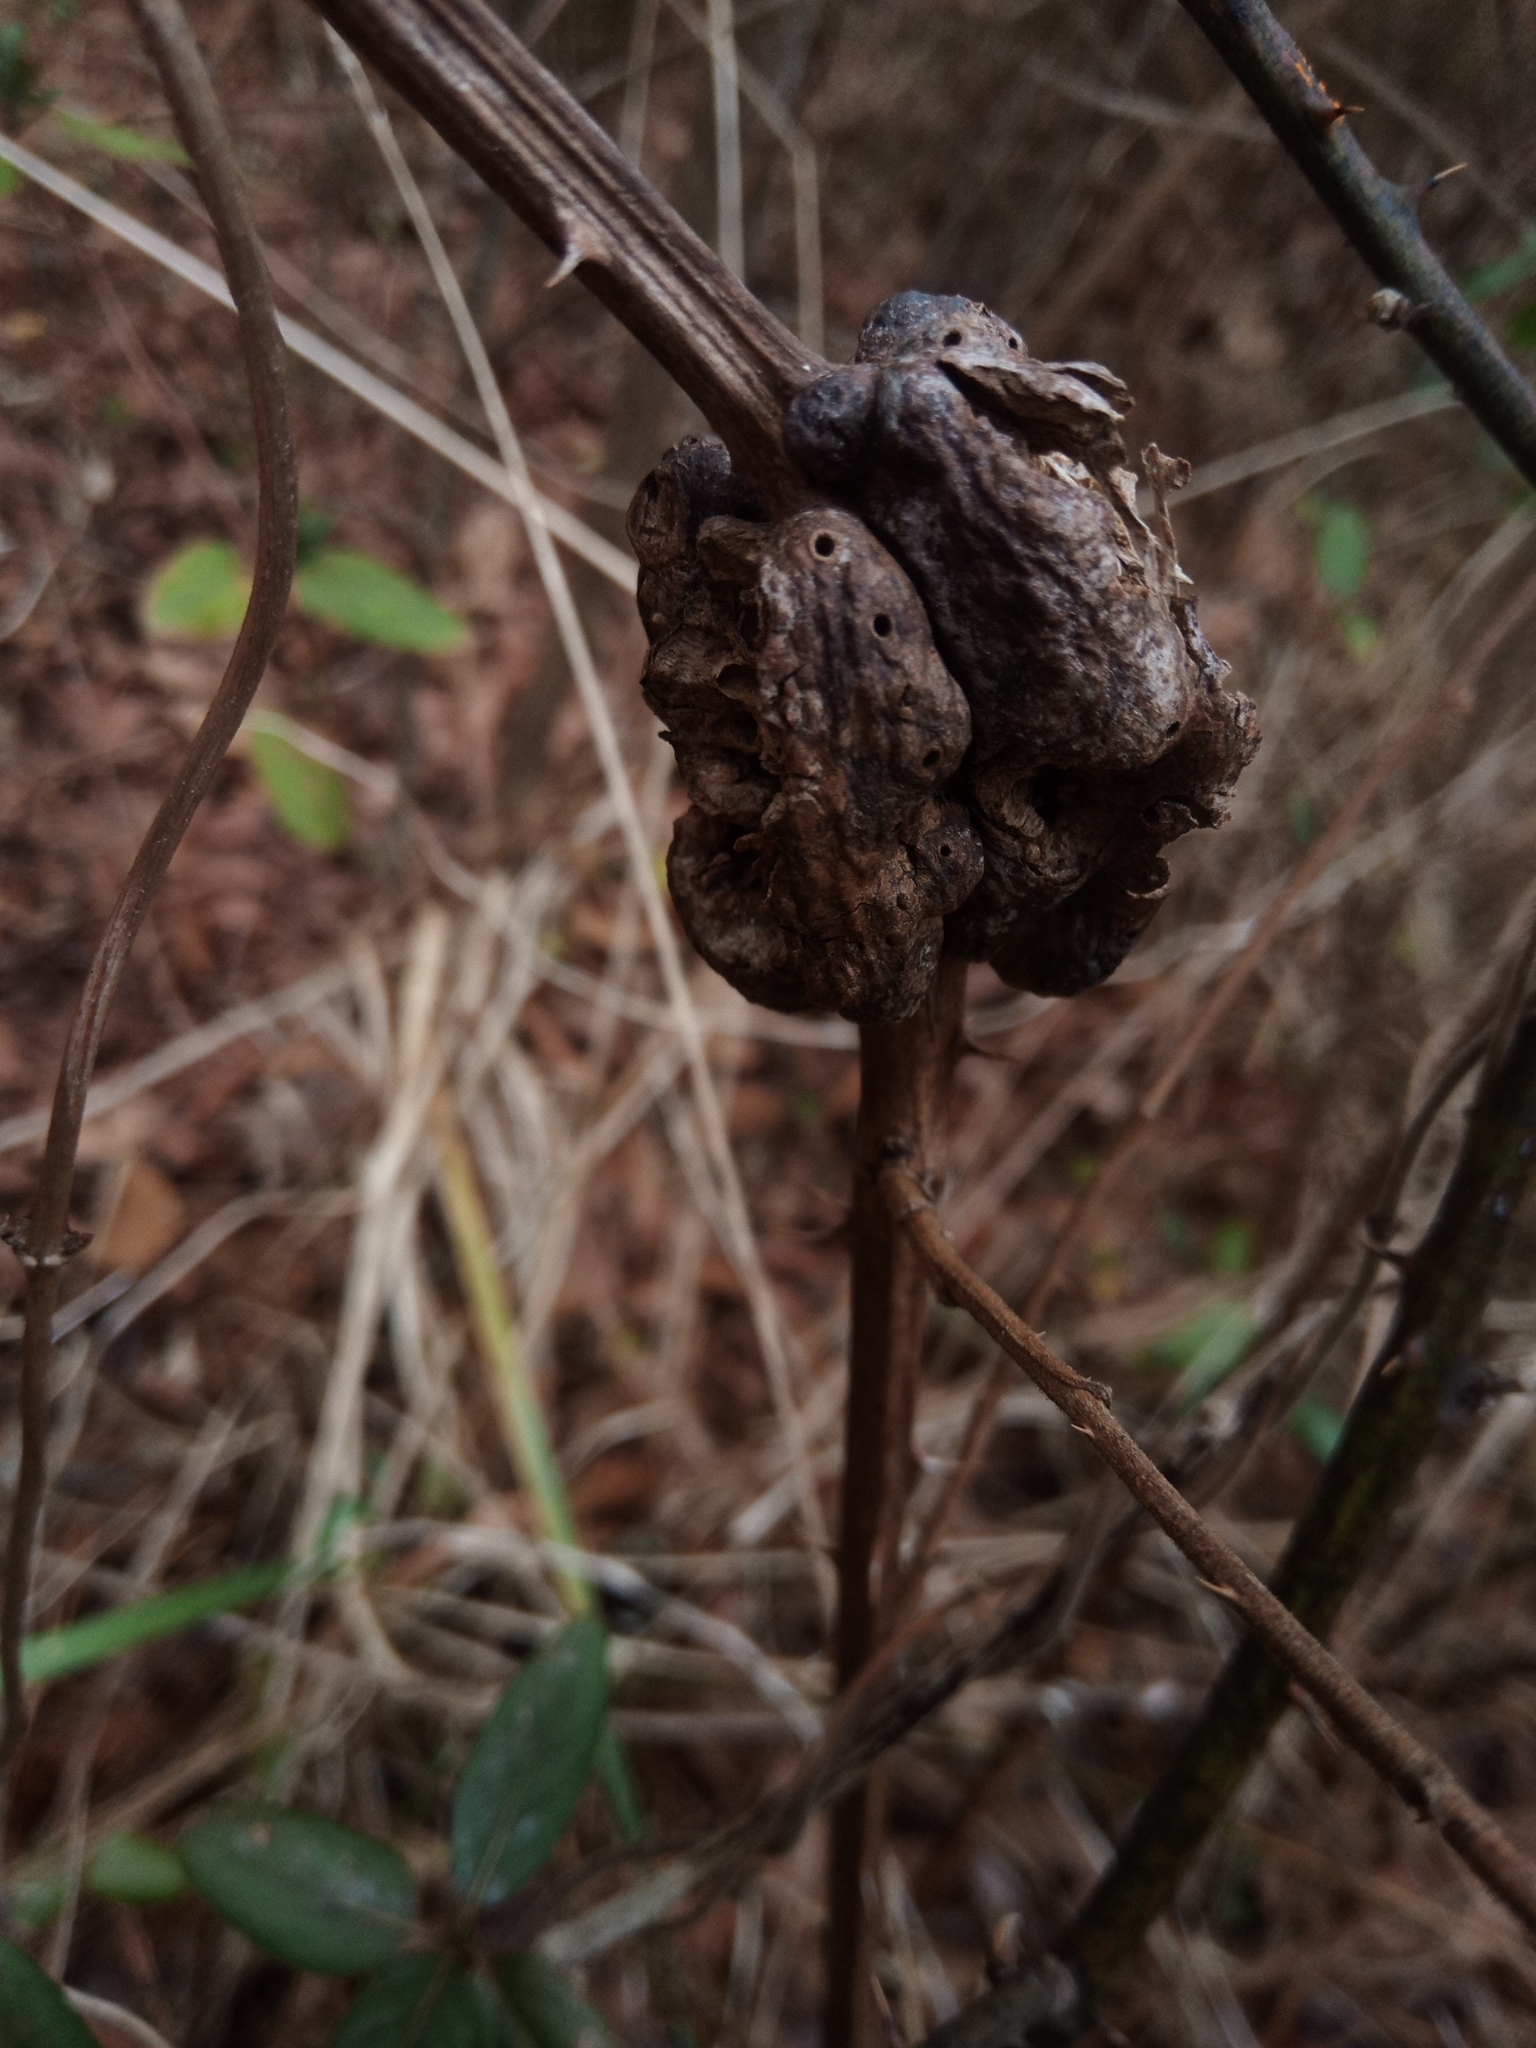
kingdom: Animalia
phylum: Arthropoda
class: Insecta
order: Hymenoptera
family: Cynipidae
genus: Diastrophus
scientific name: Diastrophus
